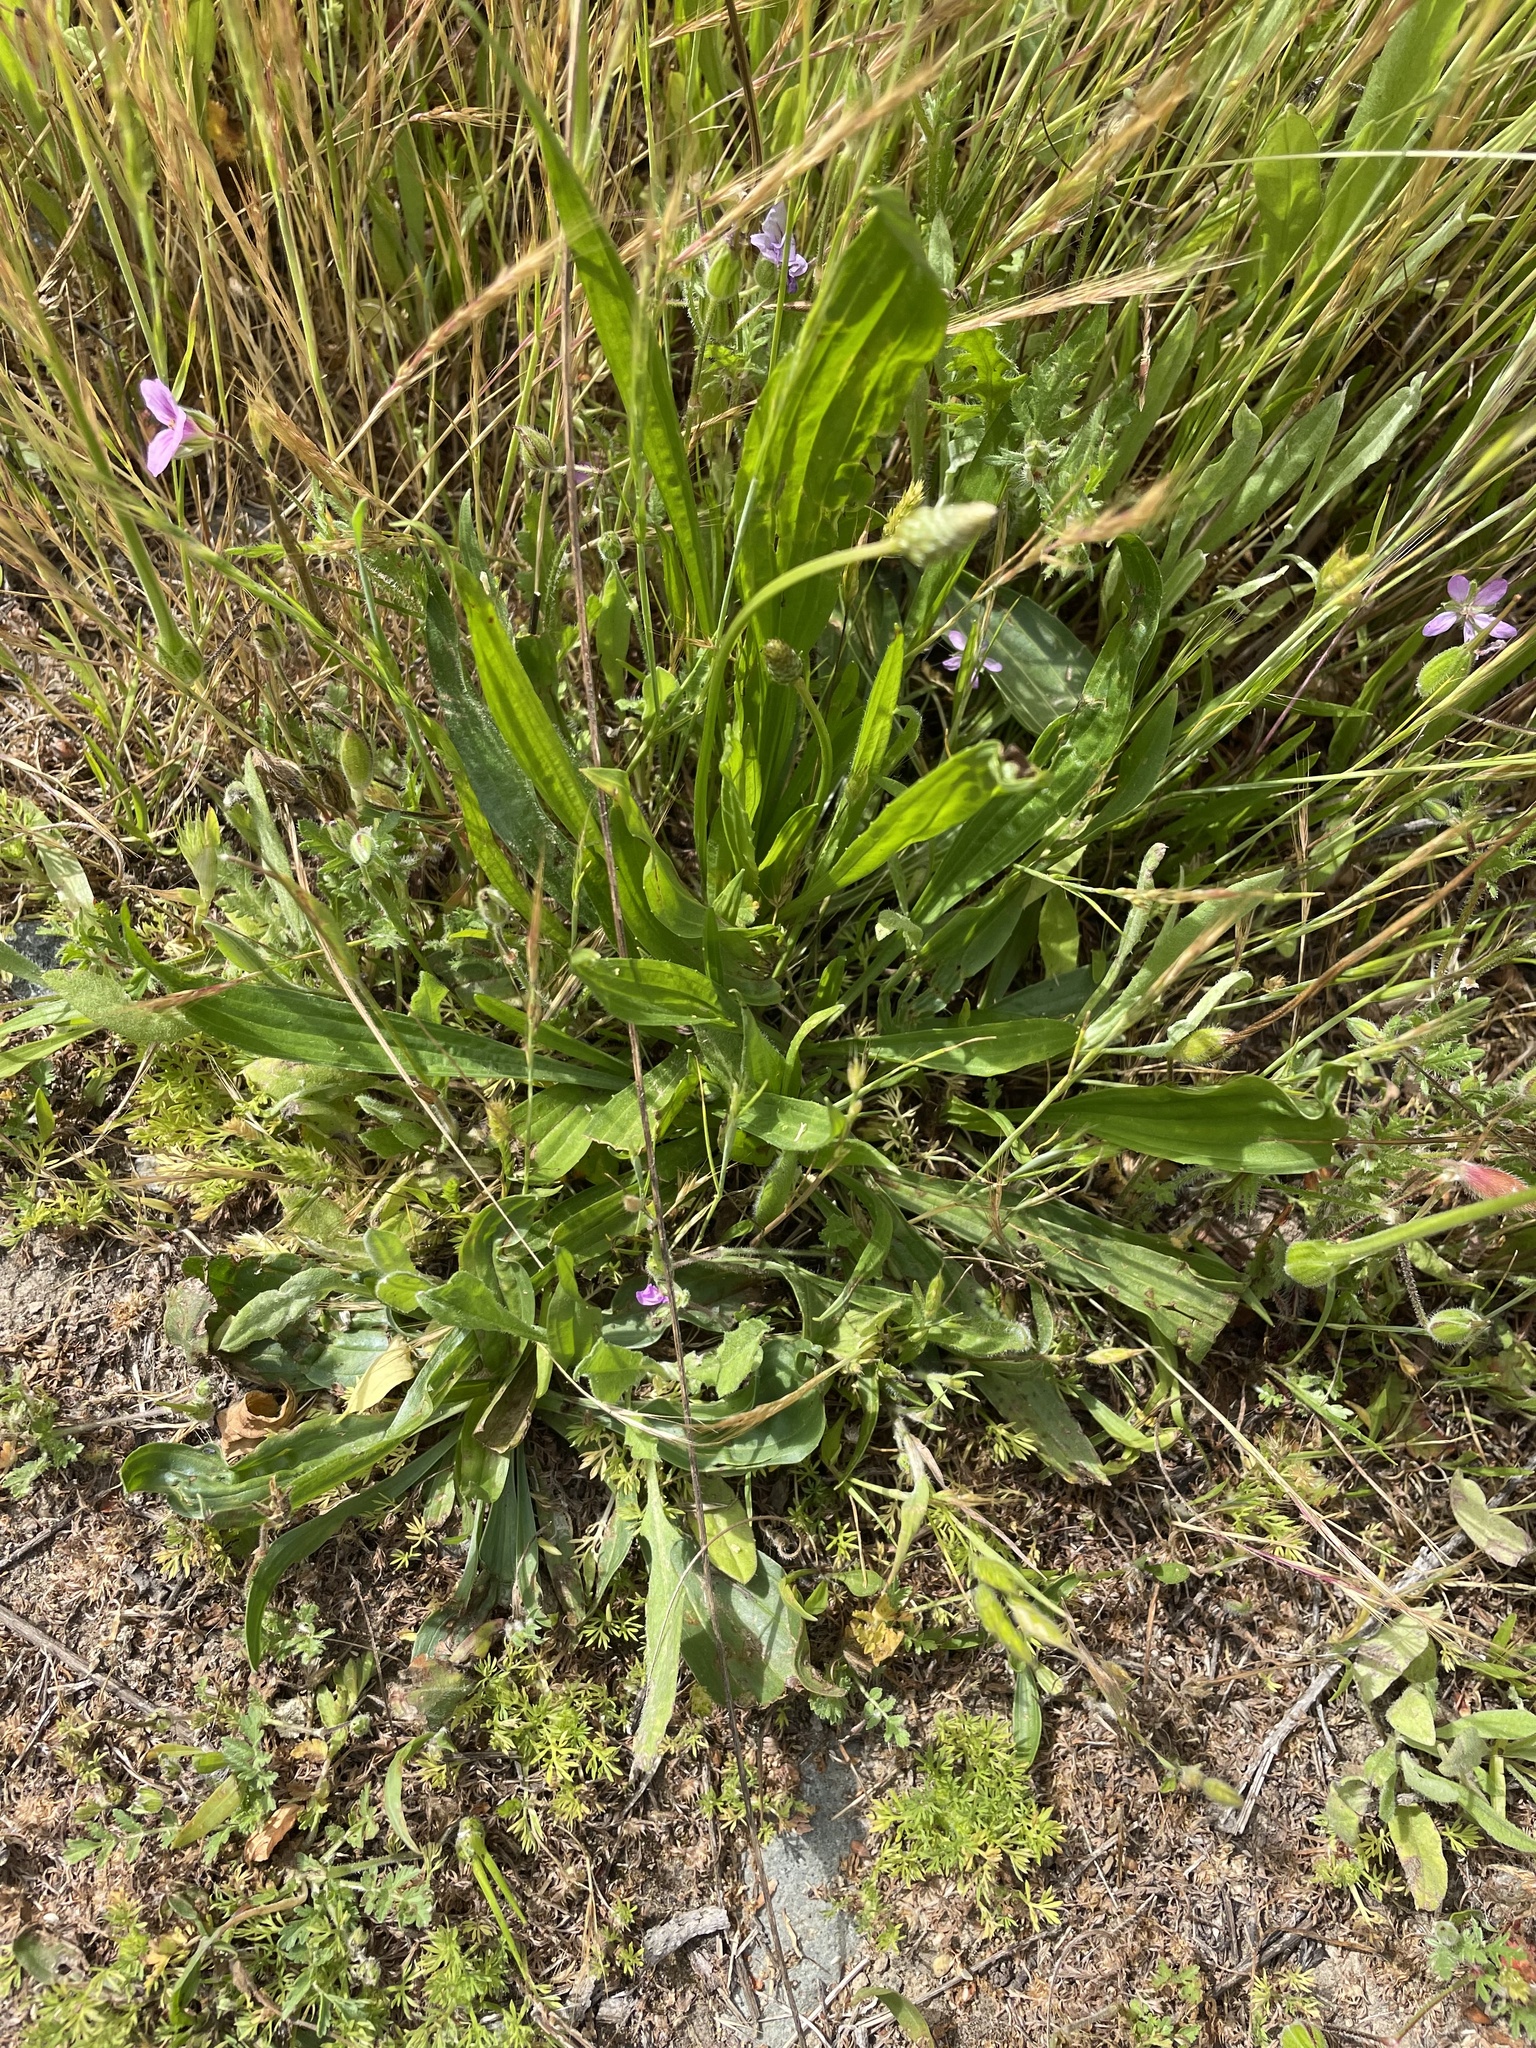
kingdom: Plantae
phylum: Tracheophyta
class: Magnoliopsida
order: Lamiales
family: Plantaginaceae
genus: Plantago
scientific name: Plantago lanceolata
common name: Ribwort plantain
